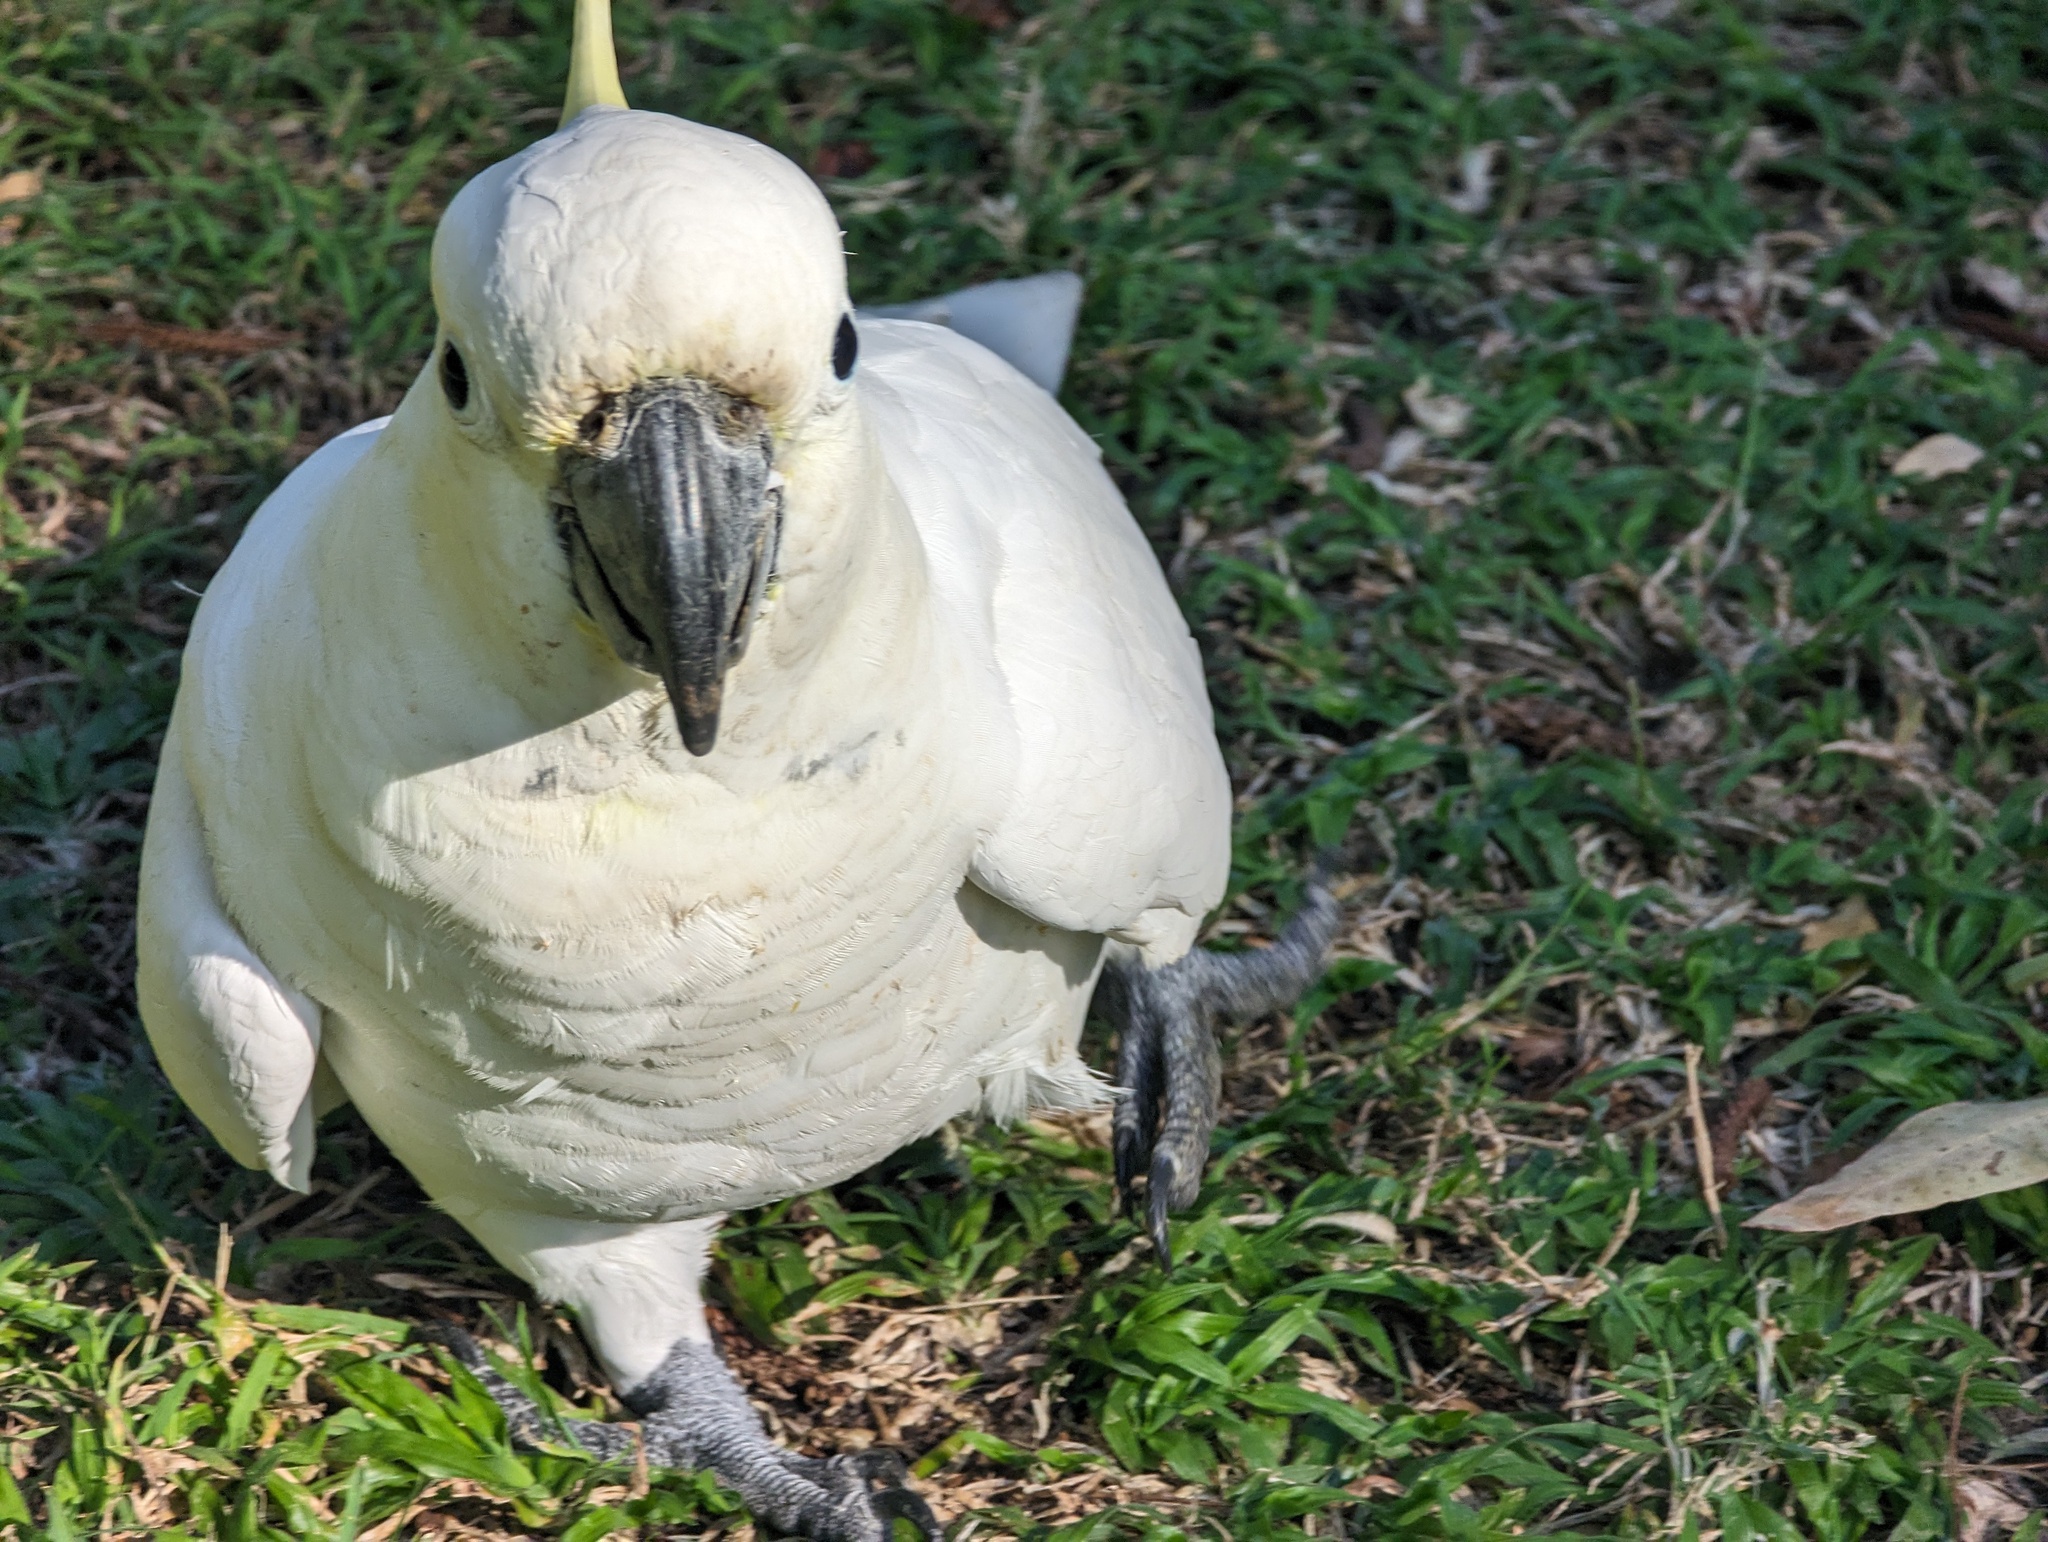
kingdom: Animalia
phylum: Chordata
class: Aves
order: Psittaciformes
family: Psittacidae
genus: Cacatua
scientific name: Cacatua galerita
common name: Sulphur-crested cockatoo
